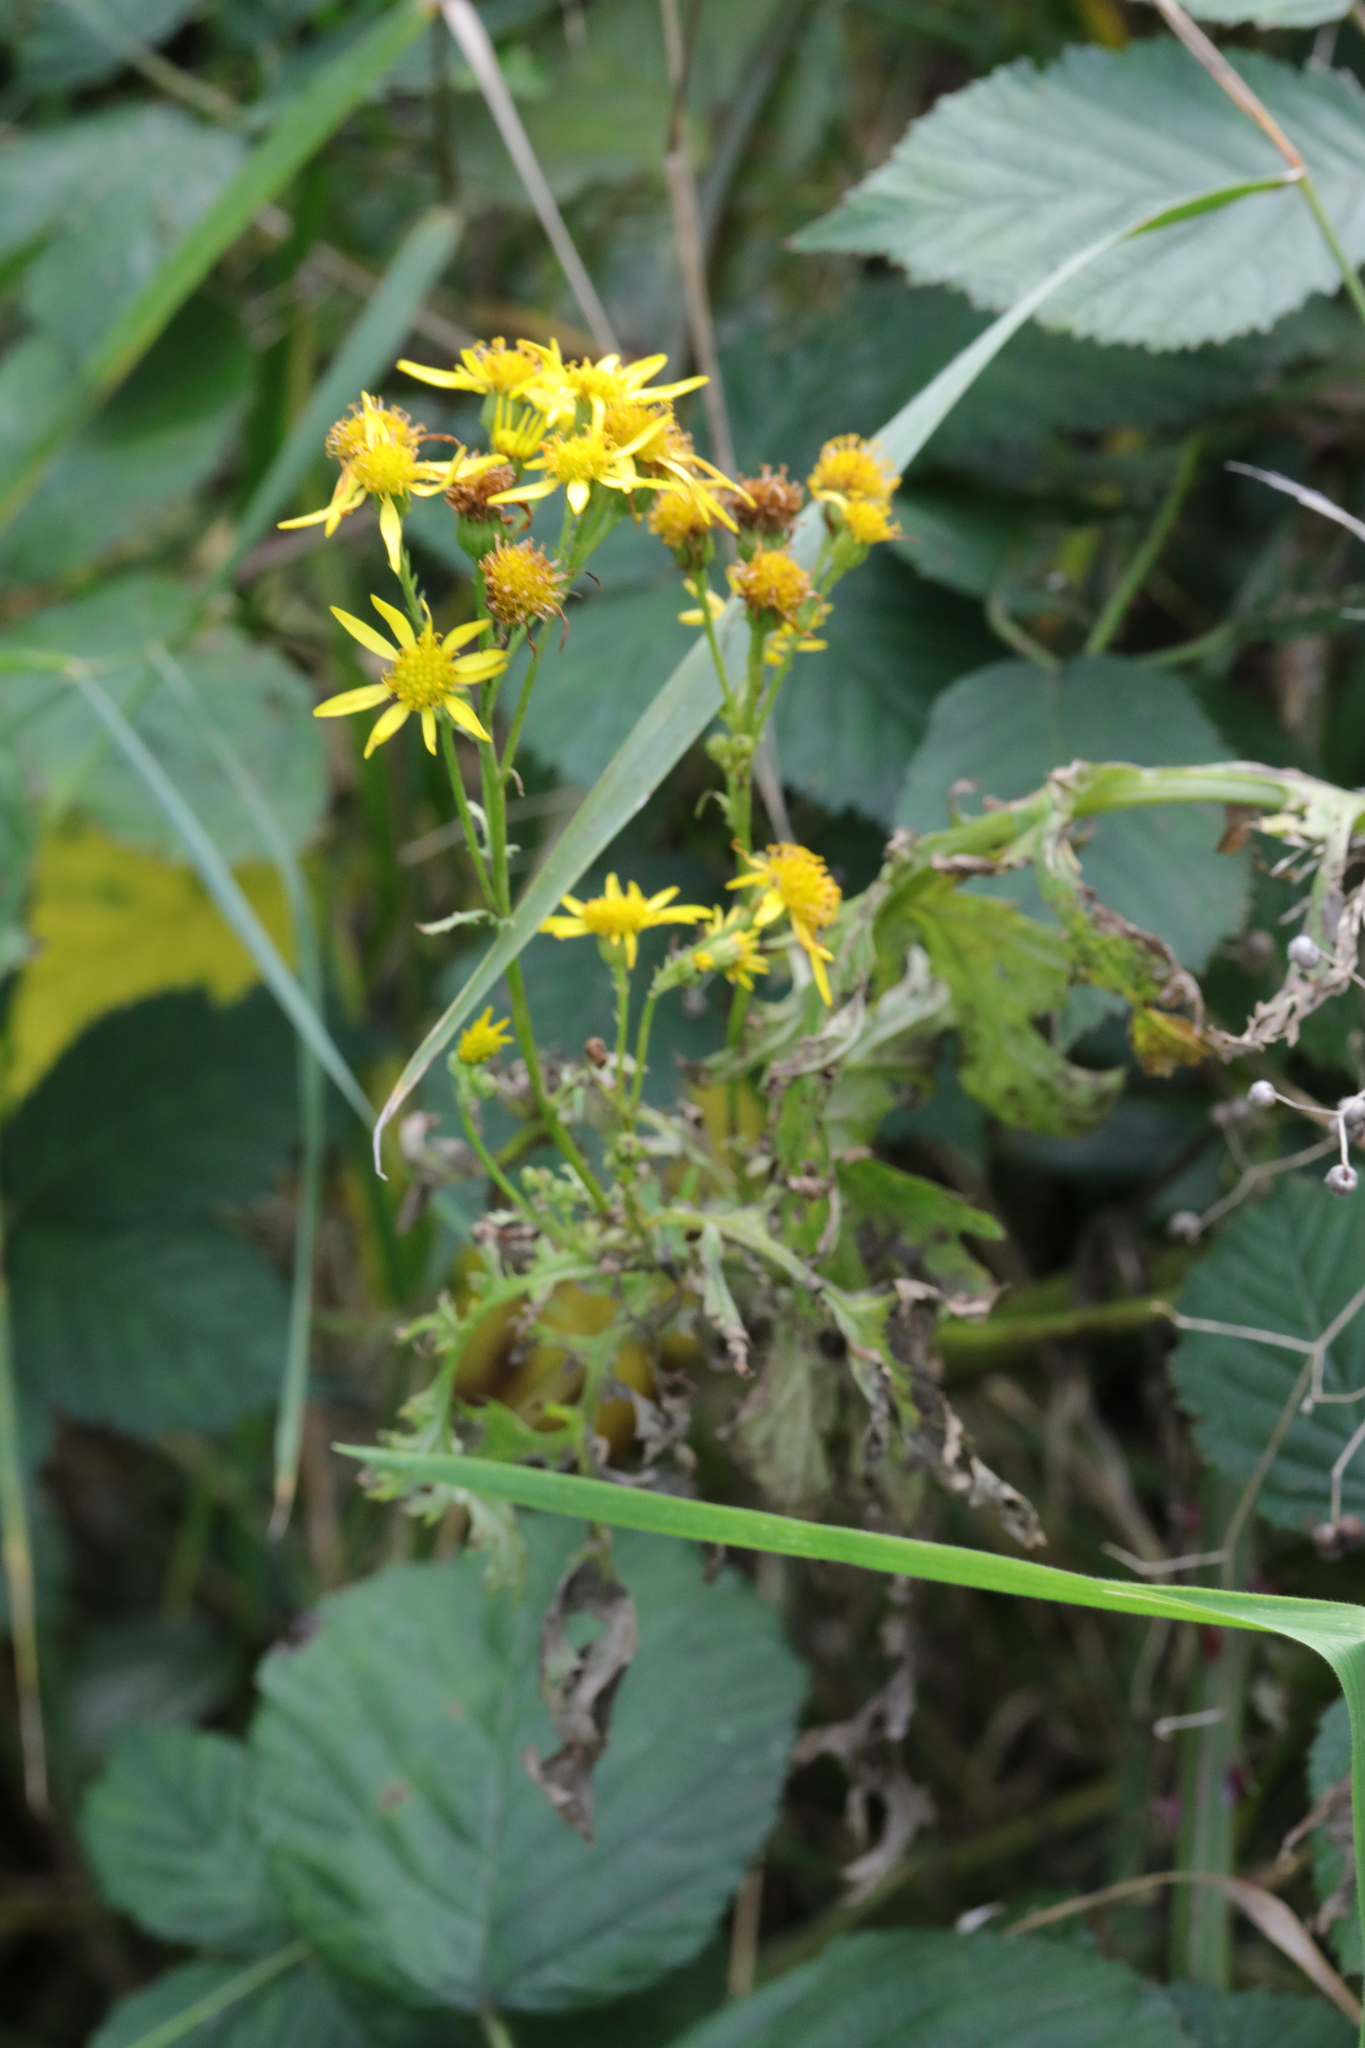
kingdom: Plantae
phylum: Tracheophyta
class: Magnoliopsida
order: Asterales
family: Asteraceae
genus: Jacobaea
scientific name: Jacobaea vulgaris
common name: Stinking willie
